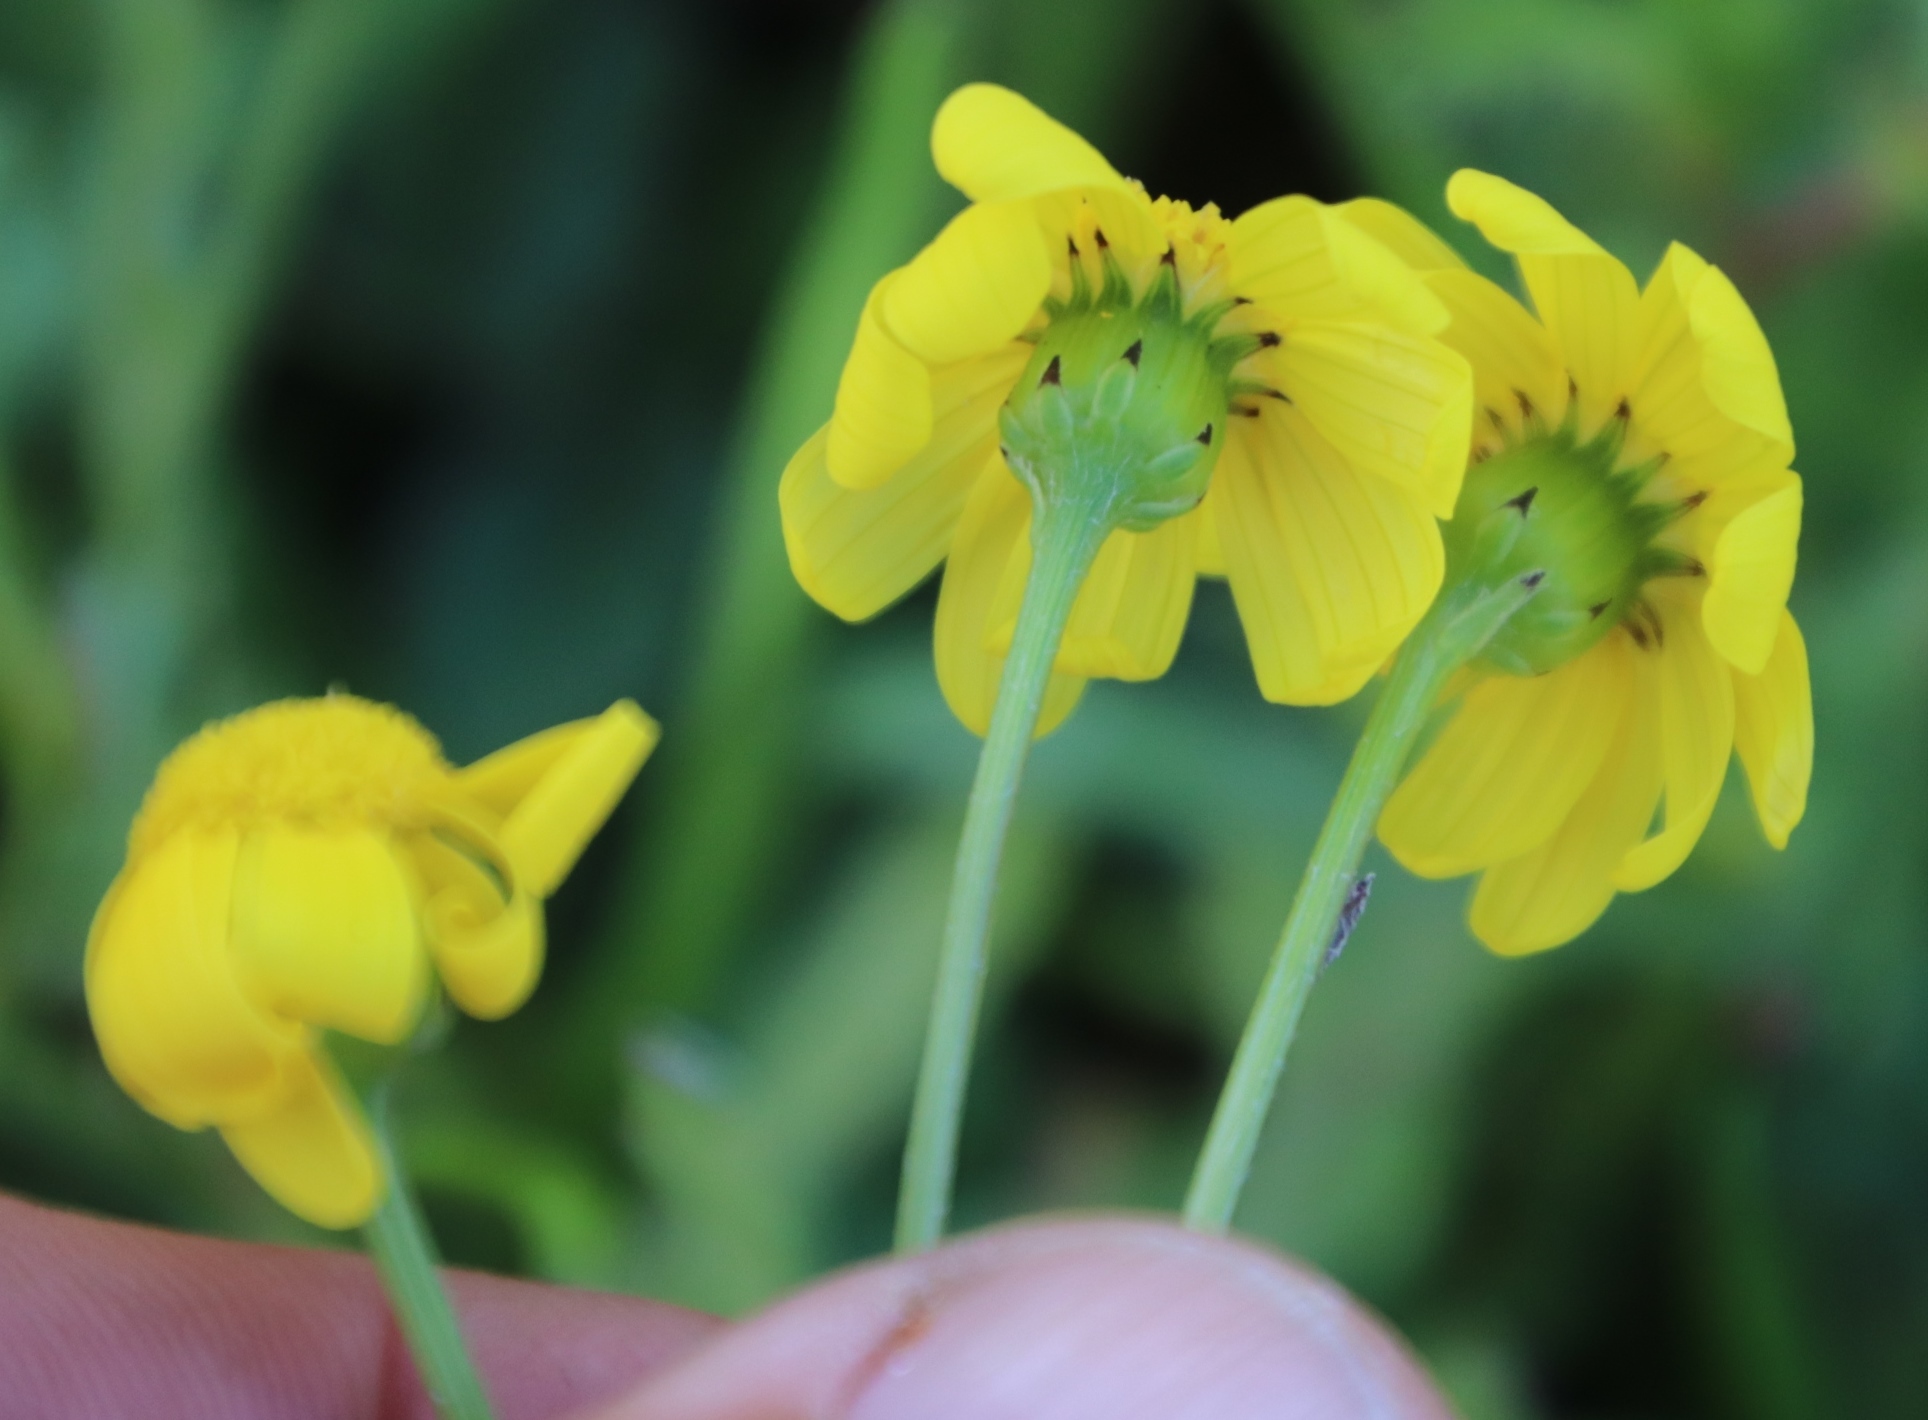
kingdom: Plantae
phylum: Tracheophyta
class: Magnoliopsida
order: Asterales
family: Asteraceae
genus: Senecio
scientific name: Senecio littoreus
